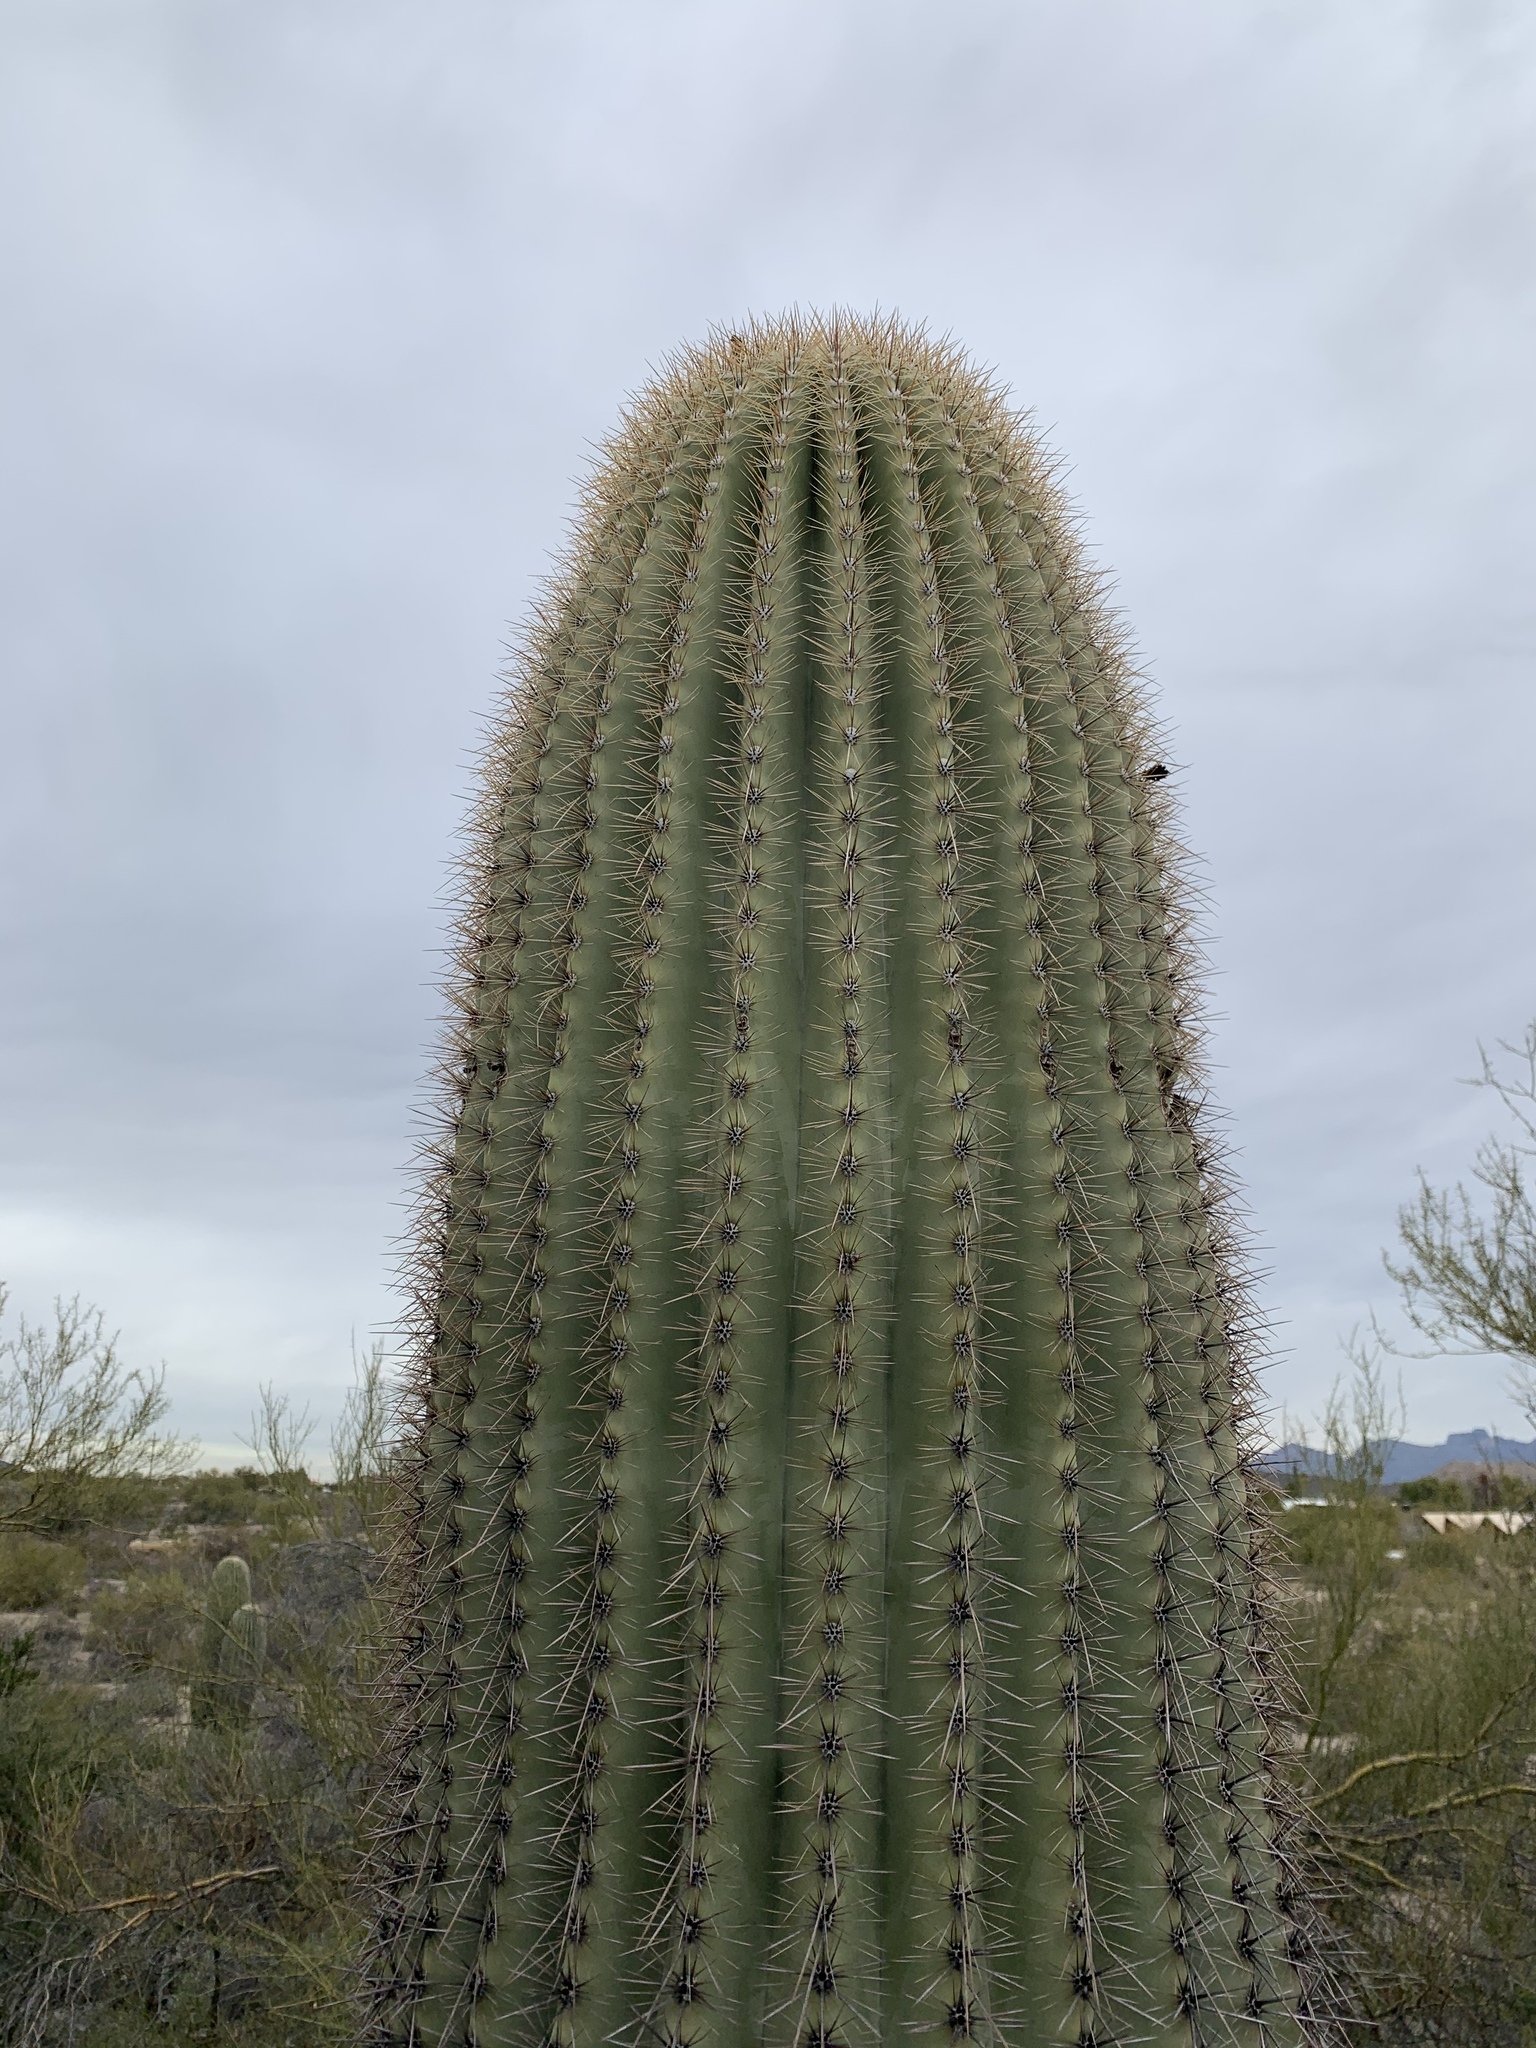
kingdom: Plantae
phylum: Tracheophyta
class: Magnoliopsida
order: Caryophyllales
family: Cactaceae
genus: Carnegiea
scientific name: Carnegiea gigantea
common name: Saguaro
